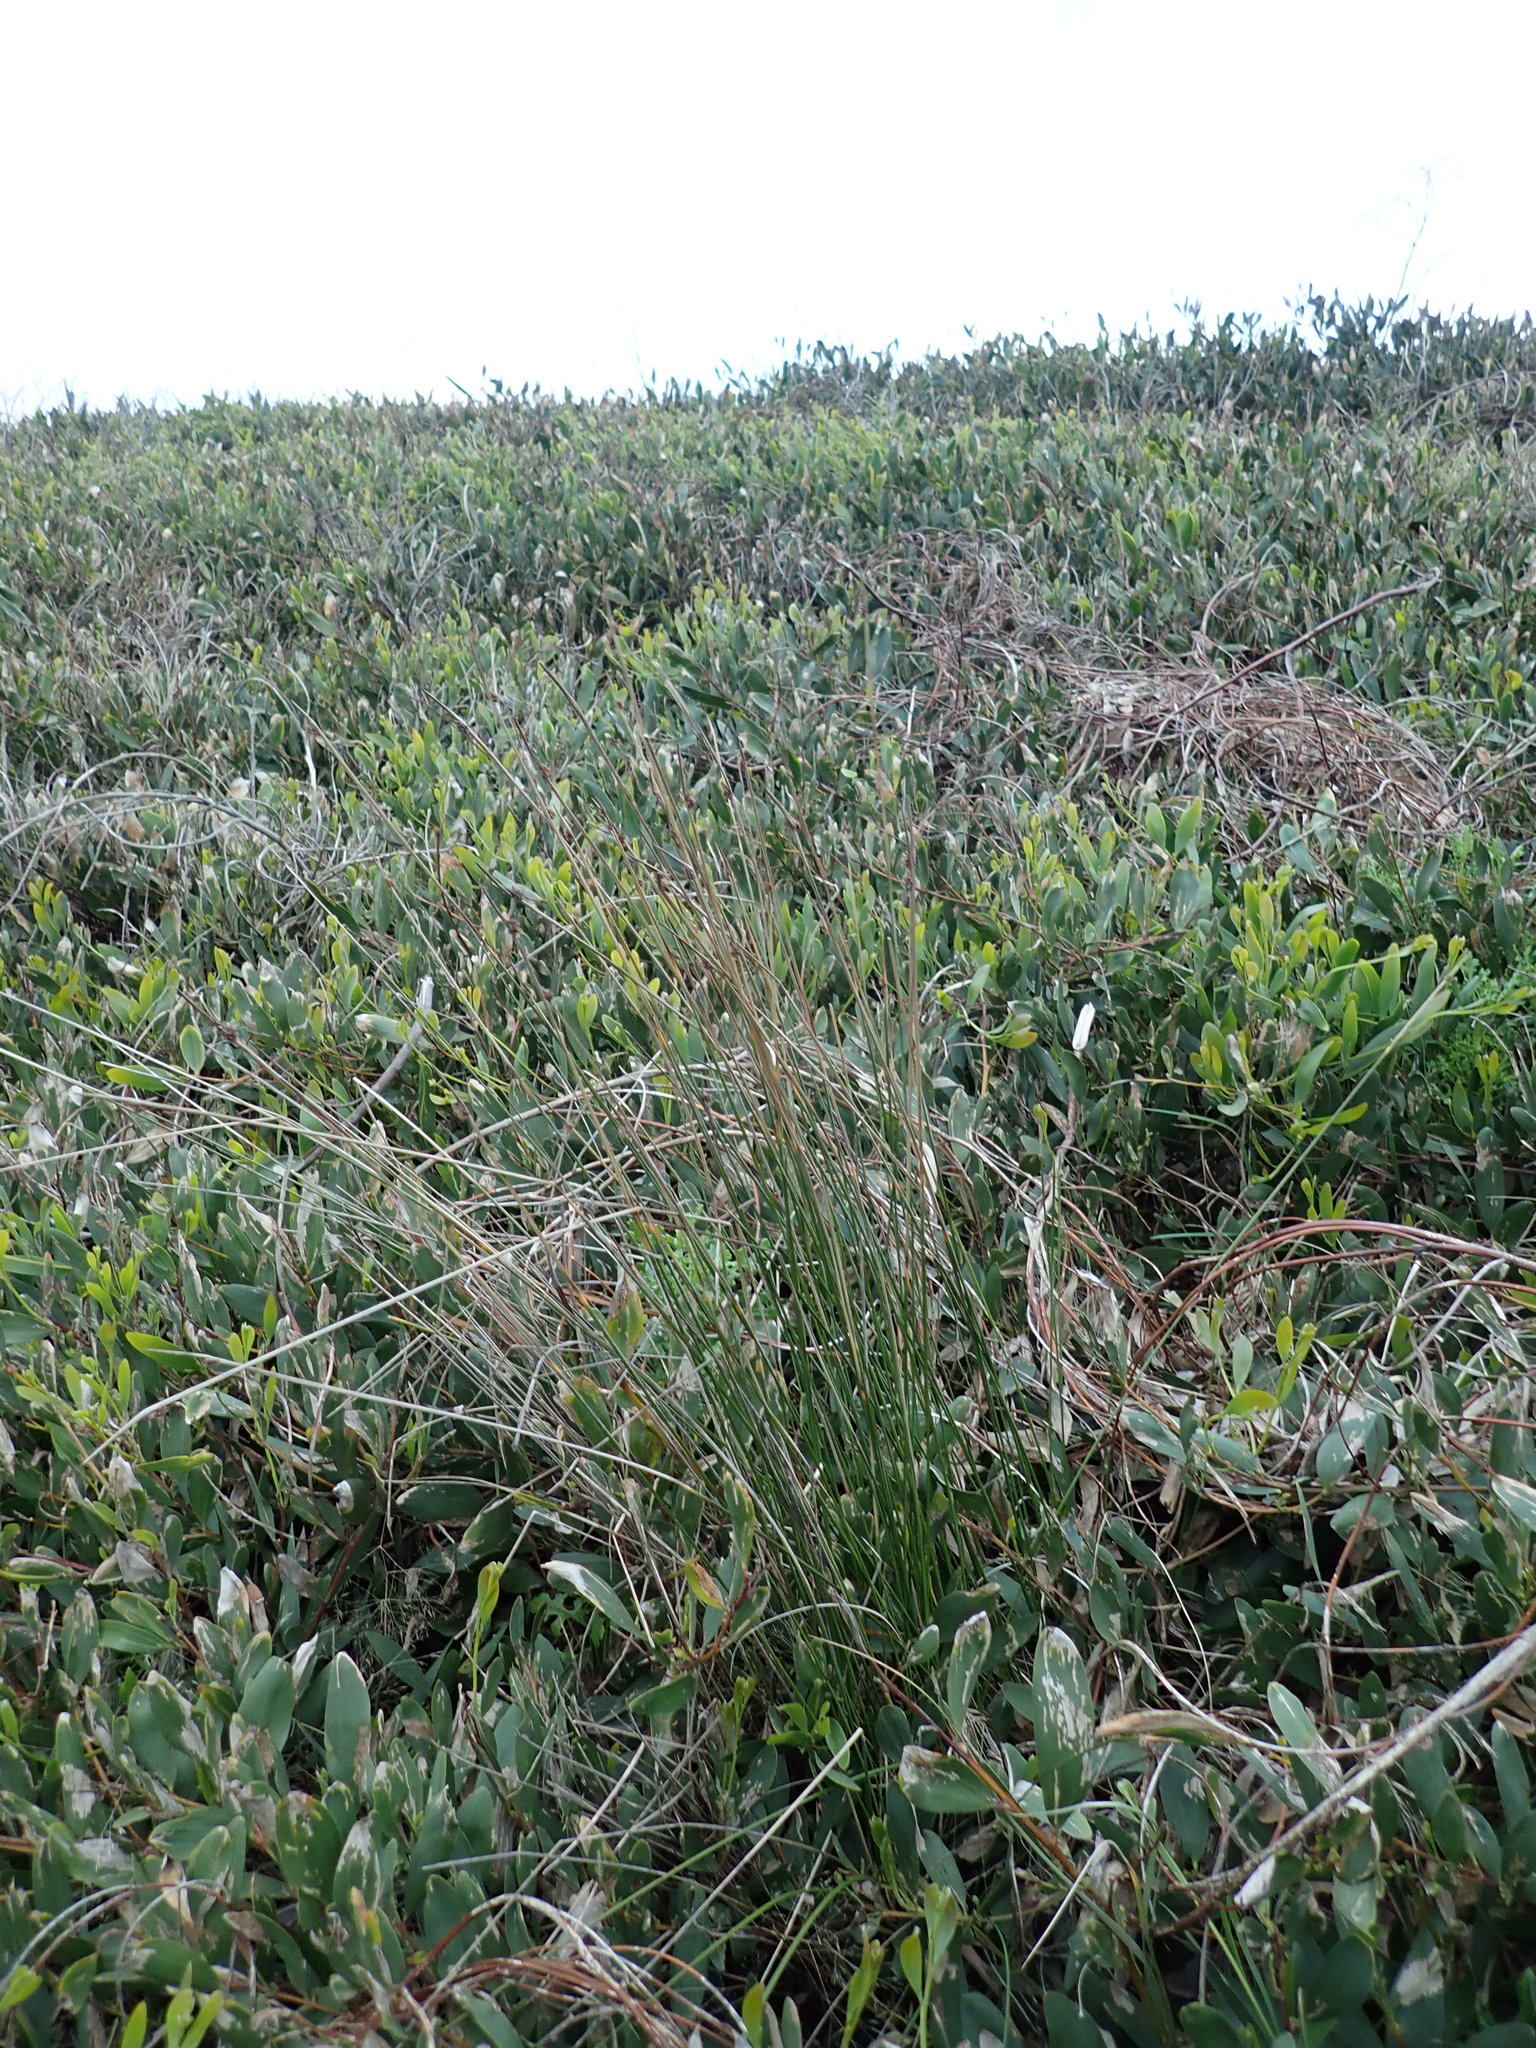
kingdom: Plantae
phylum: Tracheophyta
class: Liliopsida
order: Poales
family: Cyperaceae
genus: Ficinia
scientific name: Ficinia nodosa
